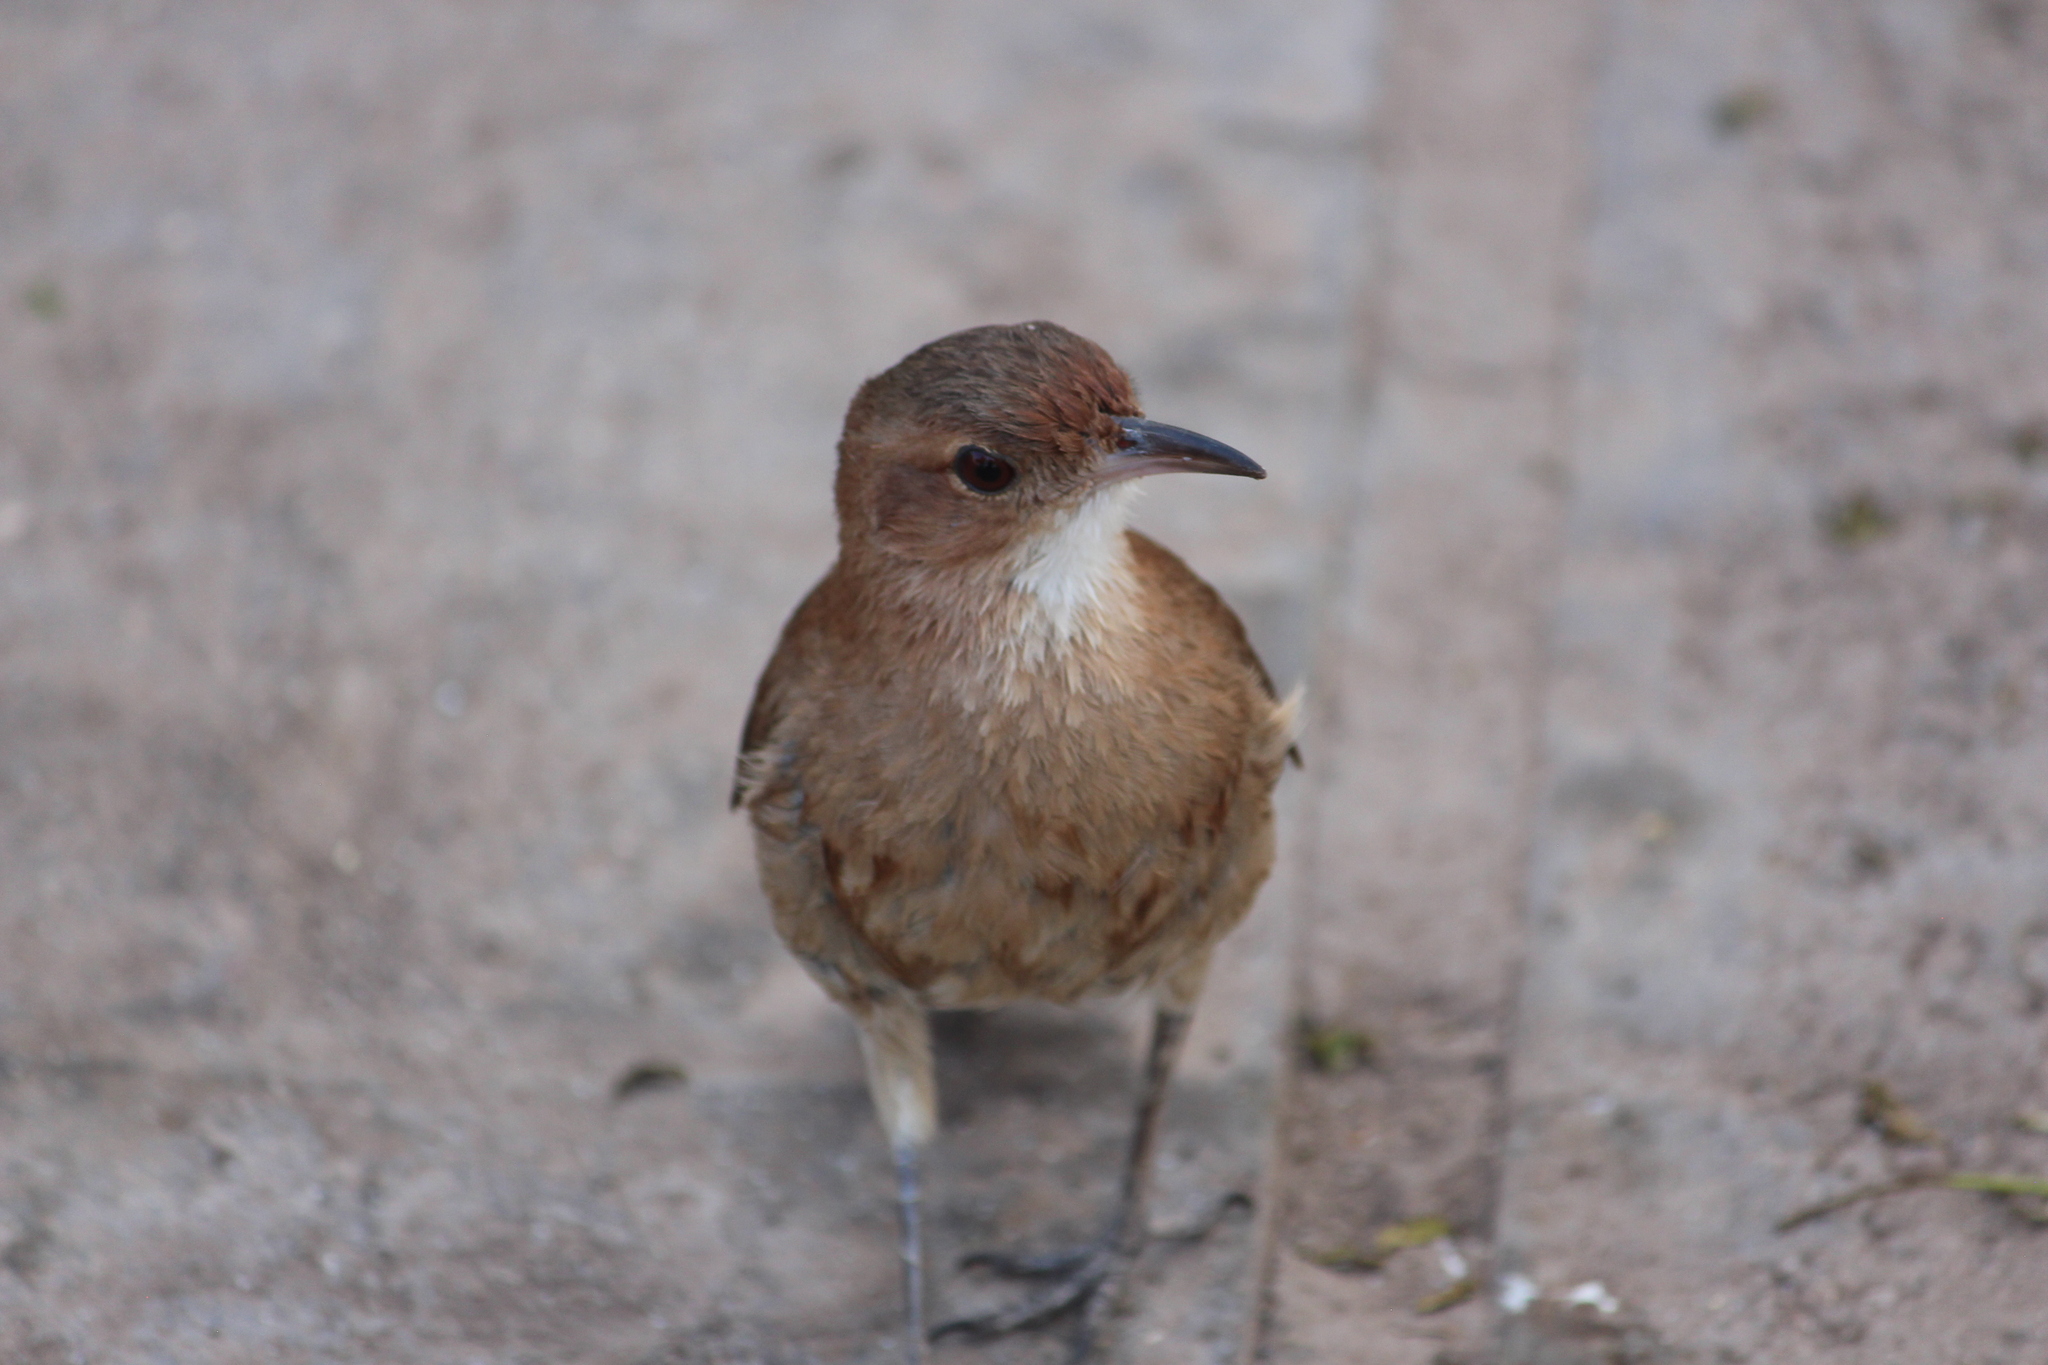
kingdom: Animalia
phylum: Chordata
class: Aves
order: Passeriformes
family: Furnariidae
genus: Furnarius
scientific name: Furnarius rufus
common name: Rufous hornero
